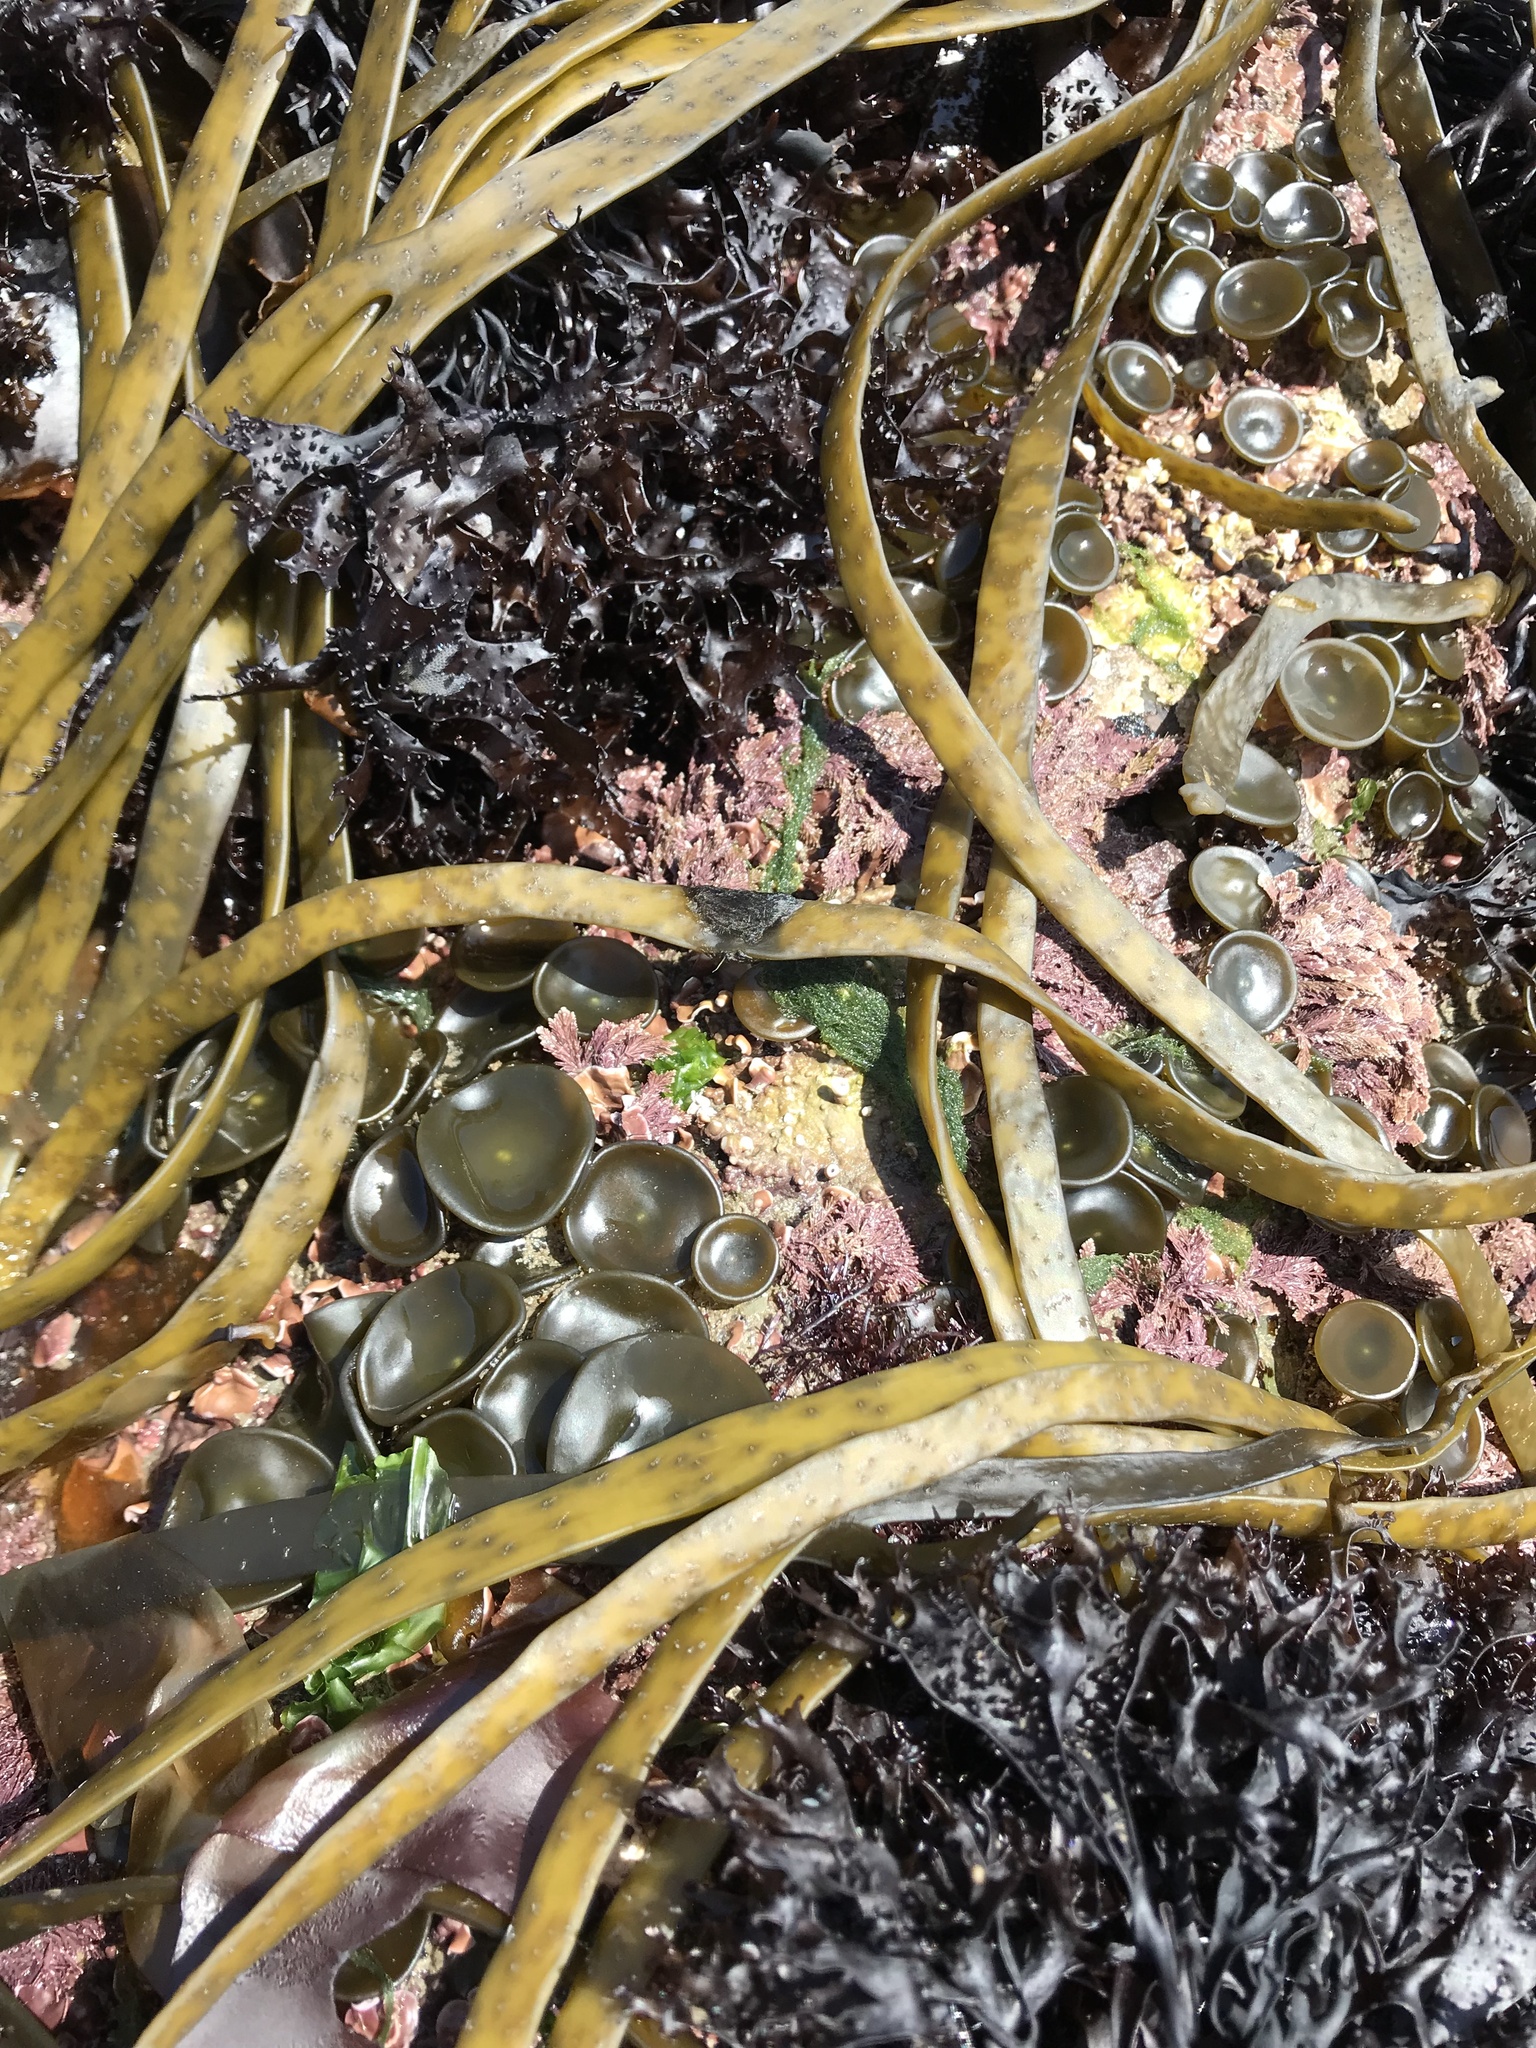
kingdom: Chromista
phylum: Ochrophyta
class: Phaeophyceae
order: Fucales
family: Himanthaliaceae
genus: Himanthalia
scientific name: Himanthalia elongata
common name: Sea-thong
